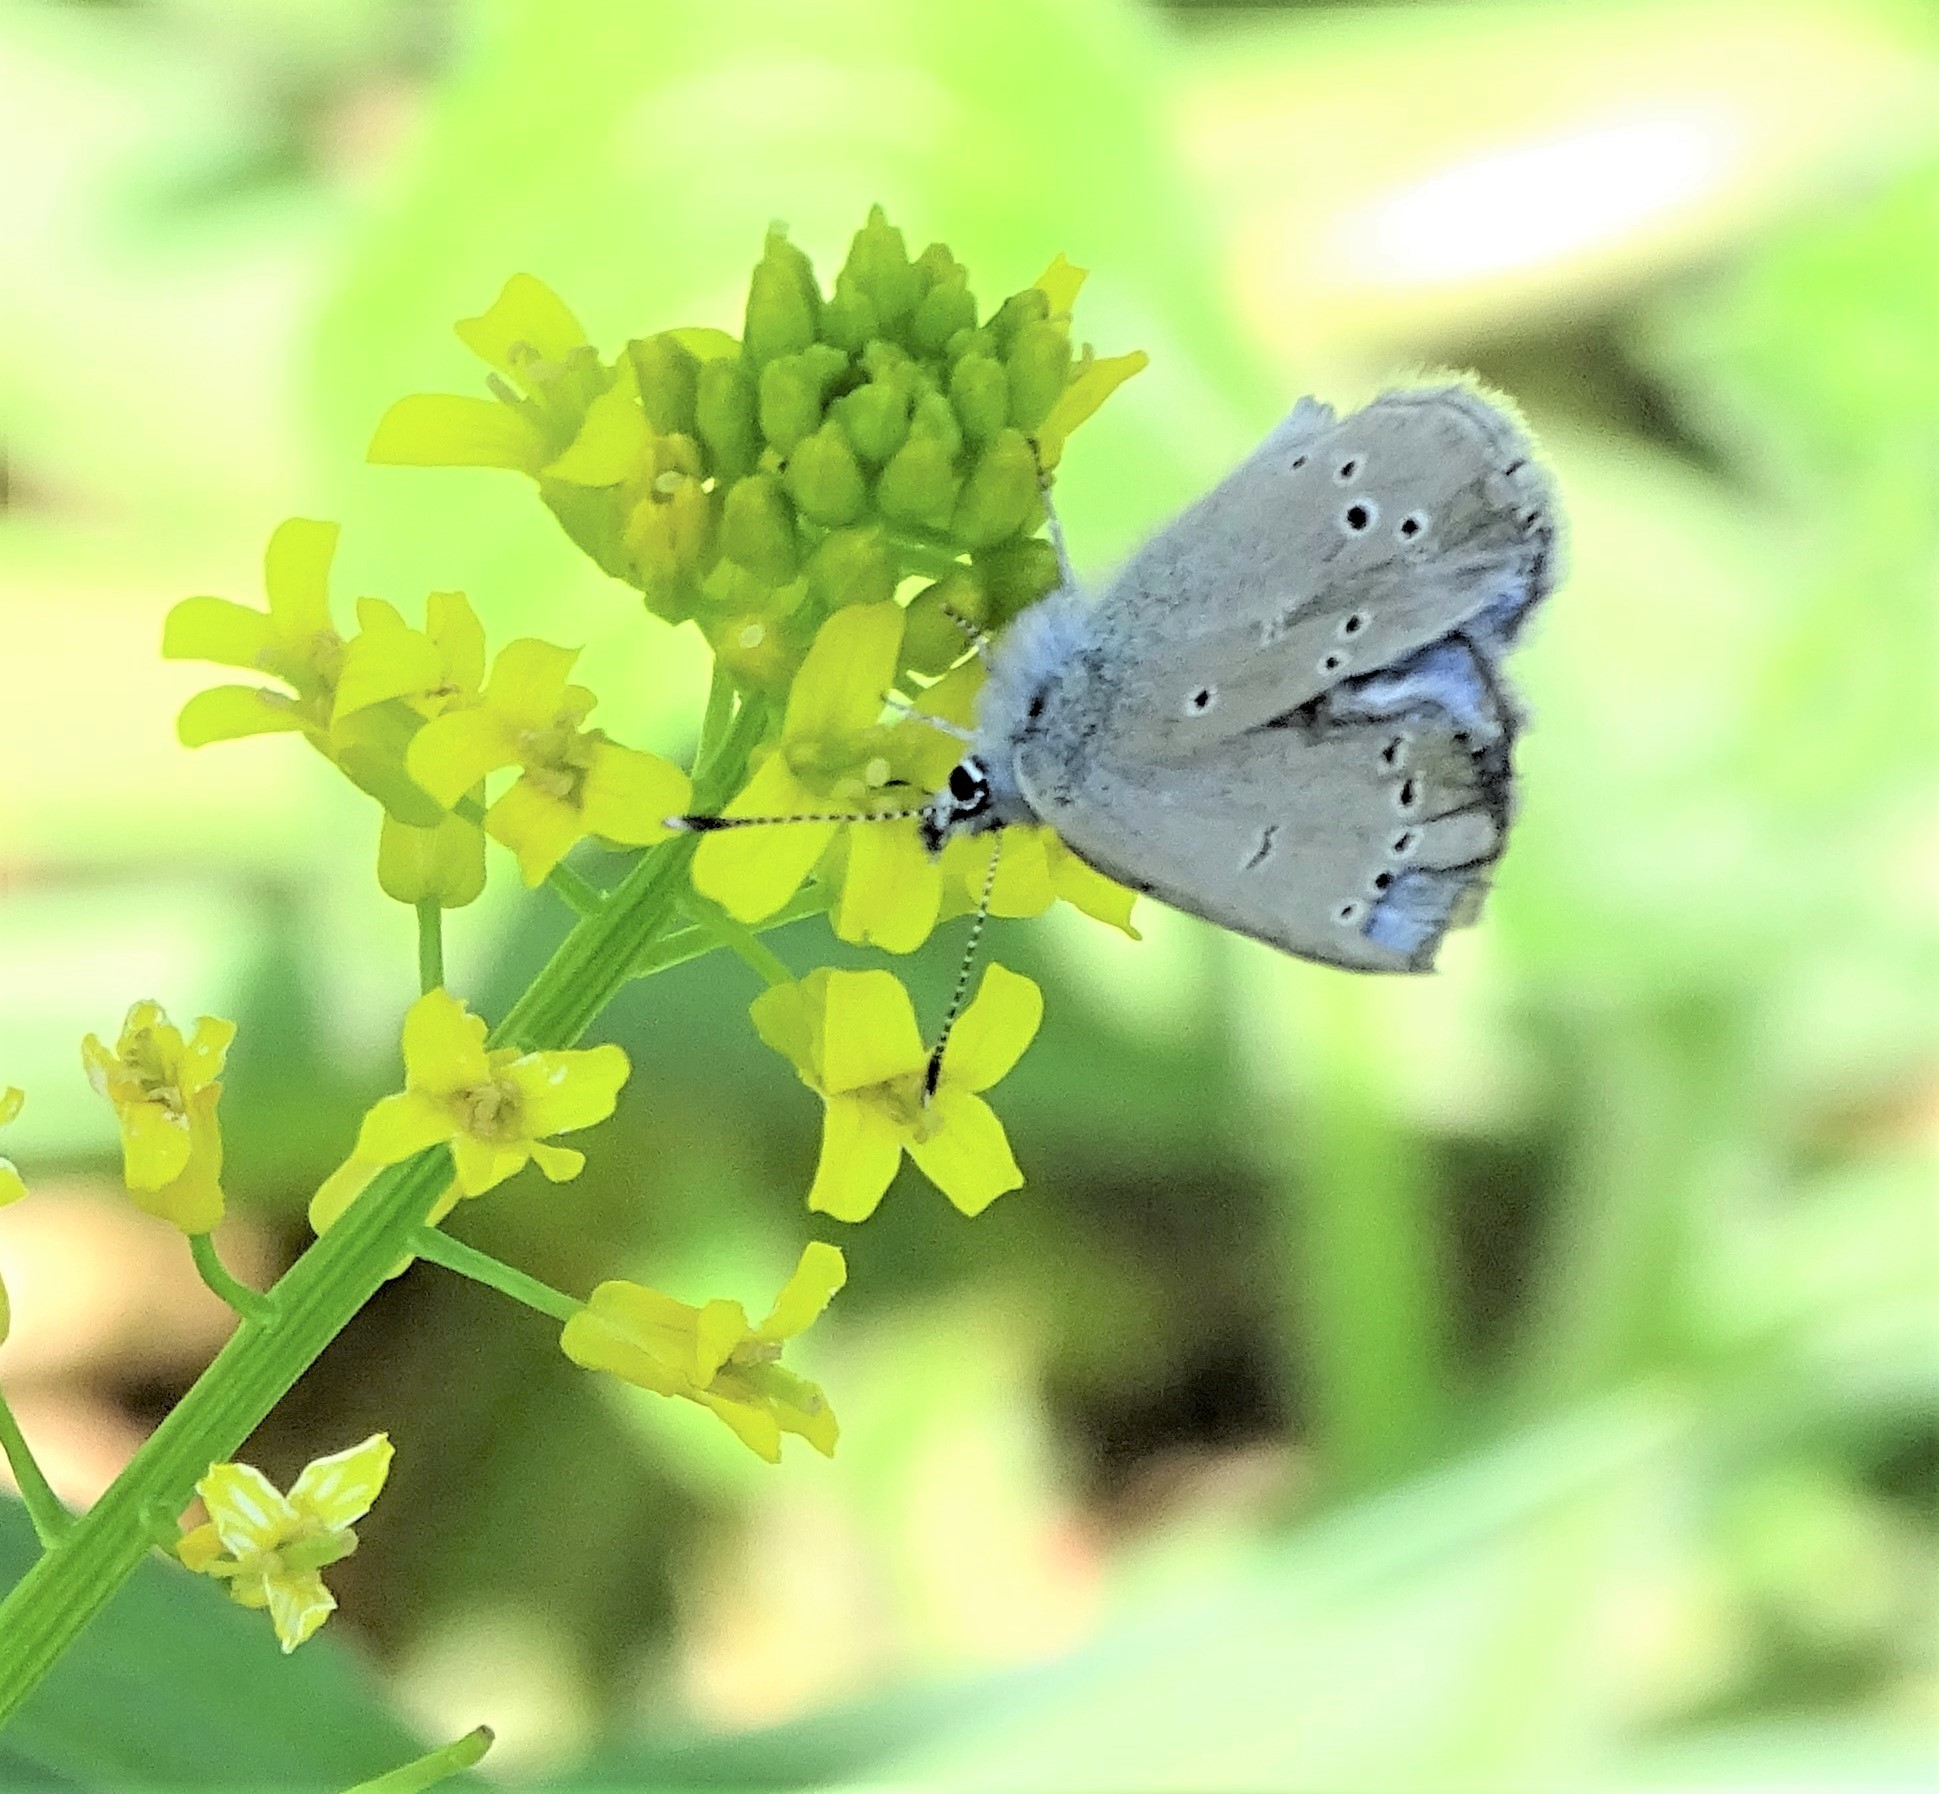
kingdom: Animalia
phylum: Arthropoda
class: Insecta
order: Lepidoptera
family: Lycaenidae
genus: Glaucopsyche
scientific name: Glaucopsyche lygdamus
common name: Silvery blue
